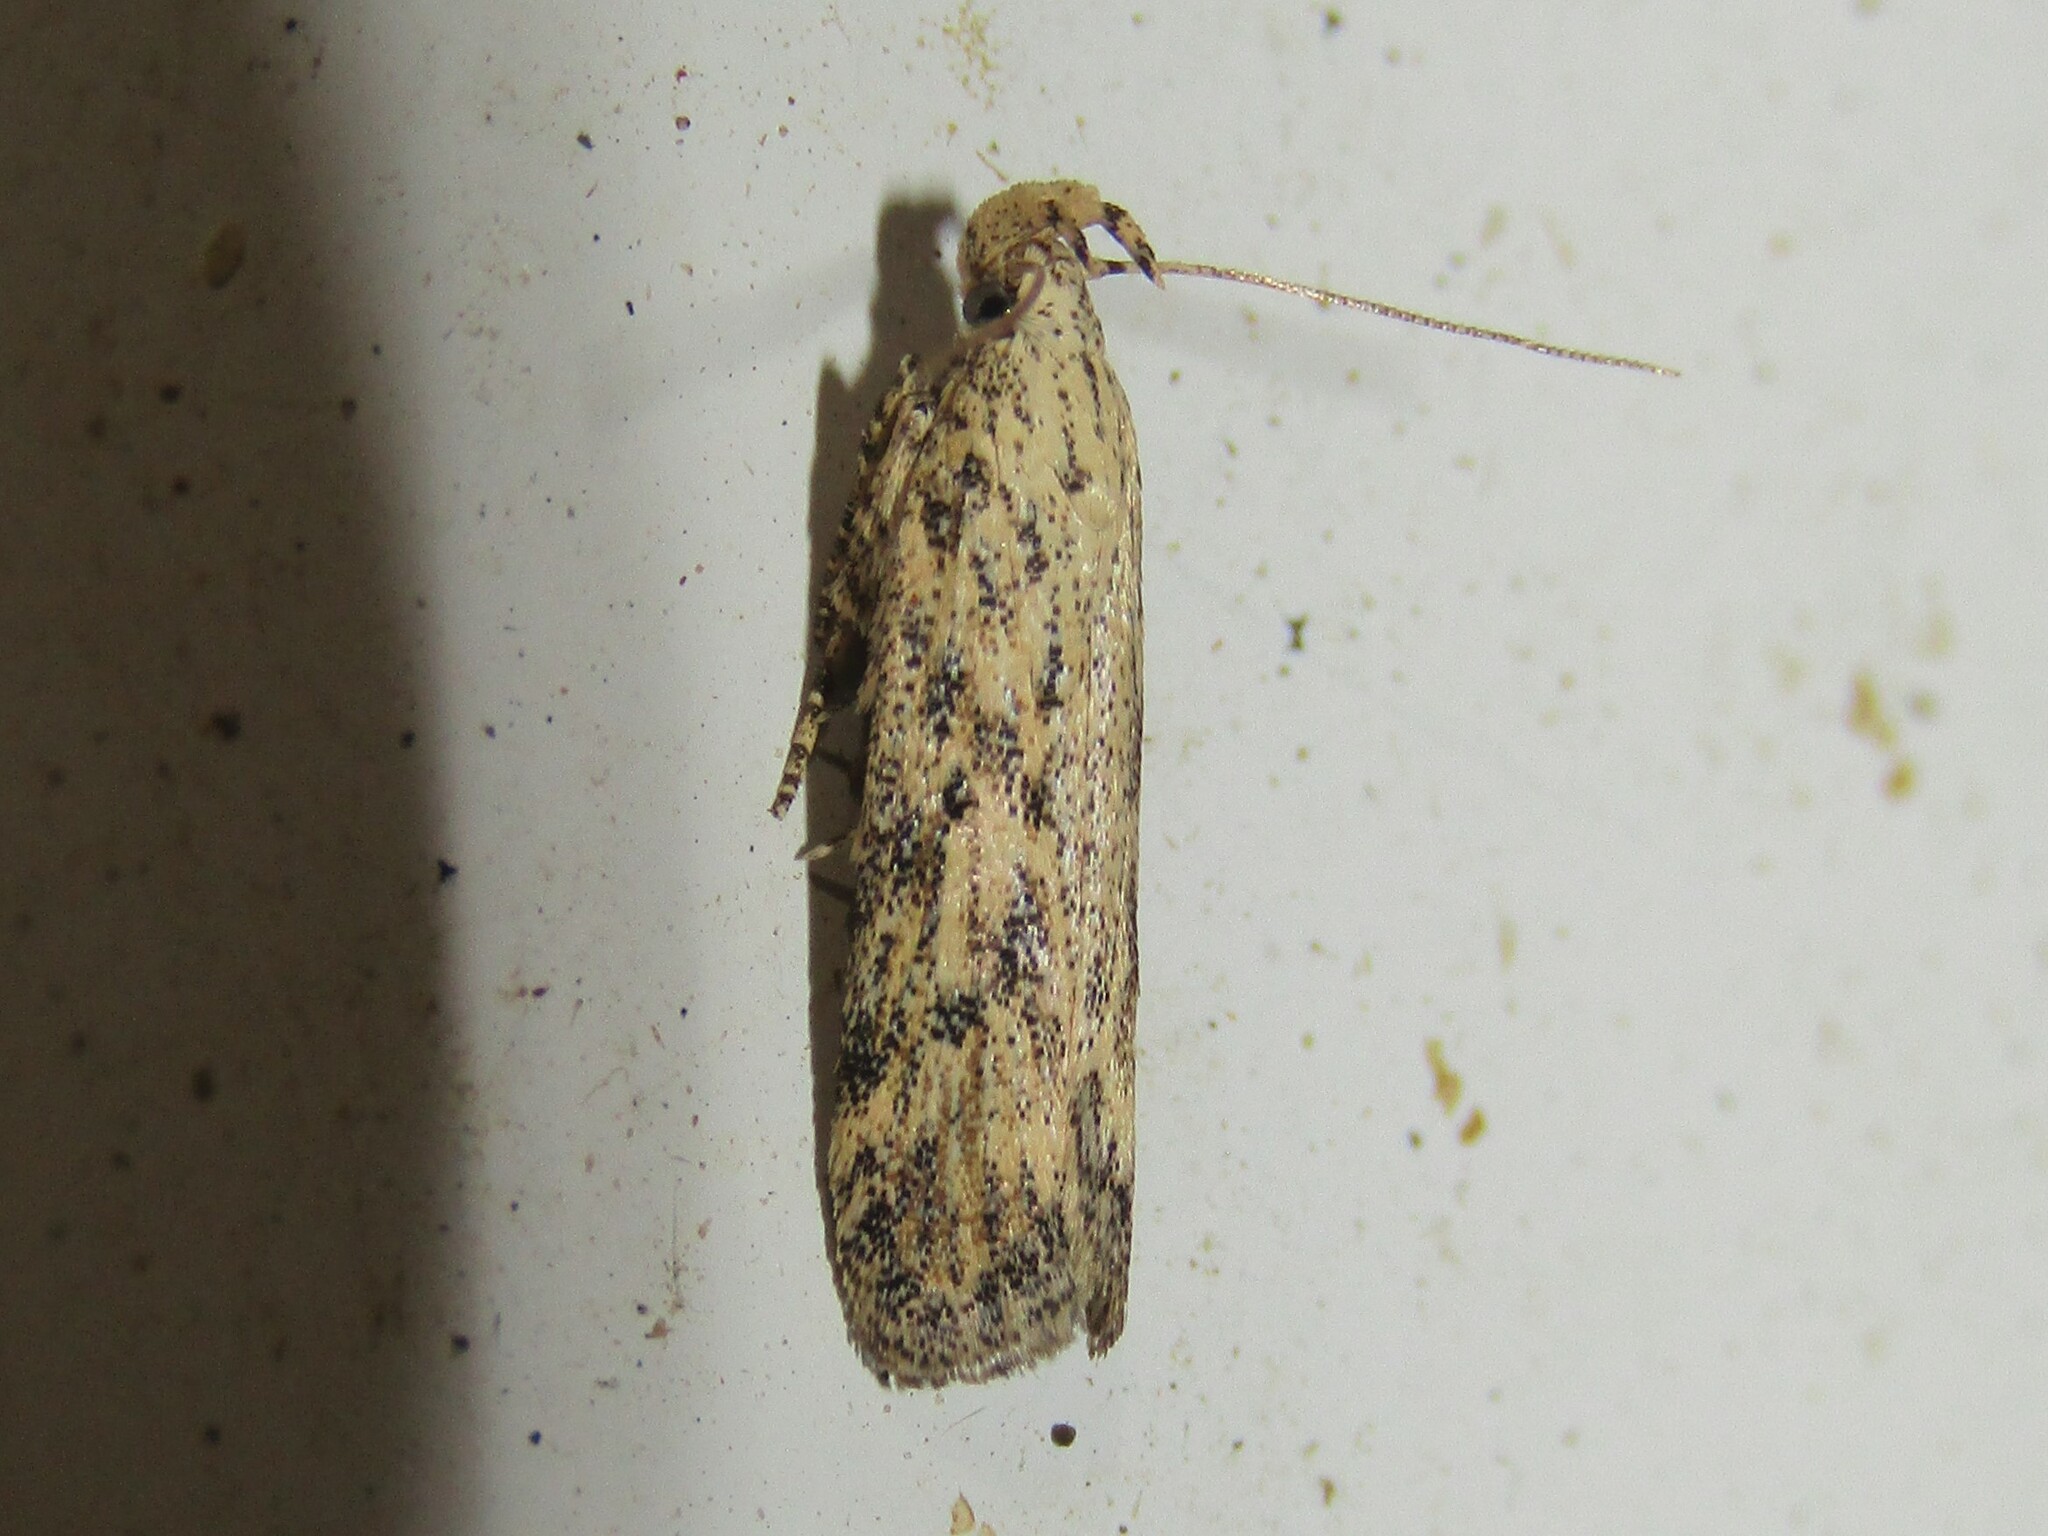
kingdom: Animalia
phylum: Arthropoda
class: Insecta
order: Lepidoptera
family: Gelechiidae
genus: Frumenta
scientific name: Frumenta nundinella
